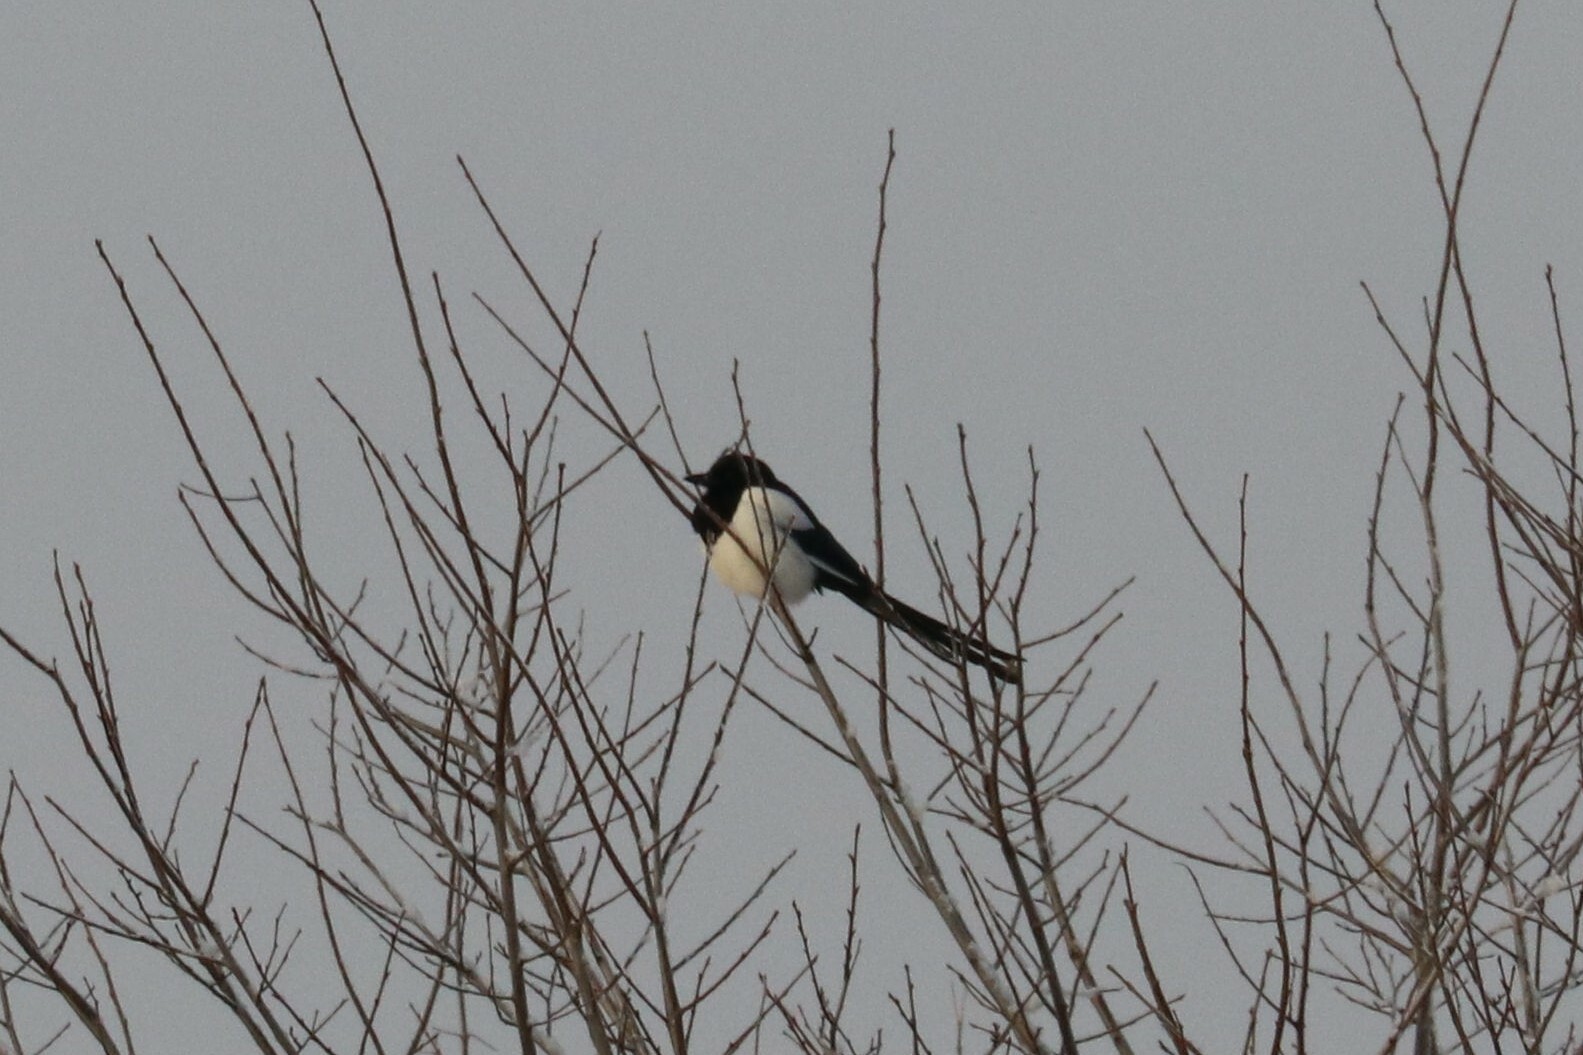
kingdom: Animalia
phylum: Chordata
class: Aves
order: Passeriformes
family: Corvidae
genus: Pica
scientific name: Pica pica
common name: Eurasian magpie
